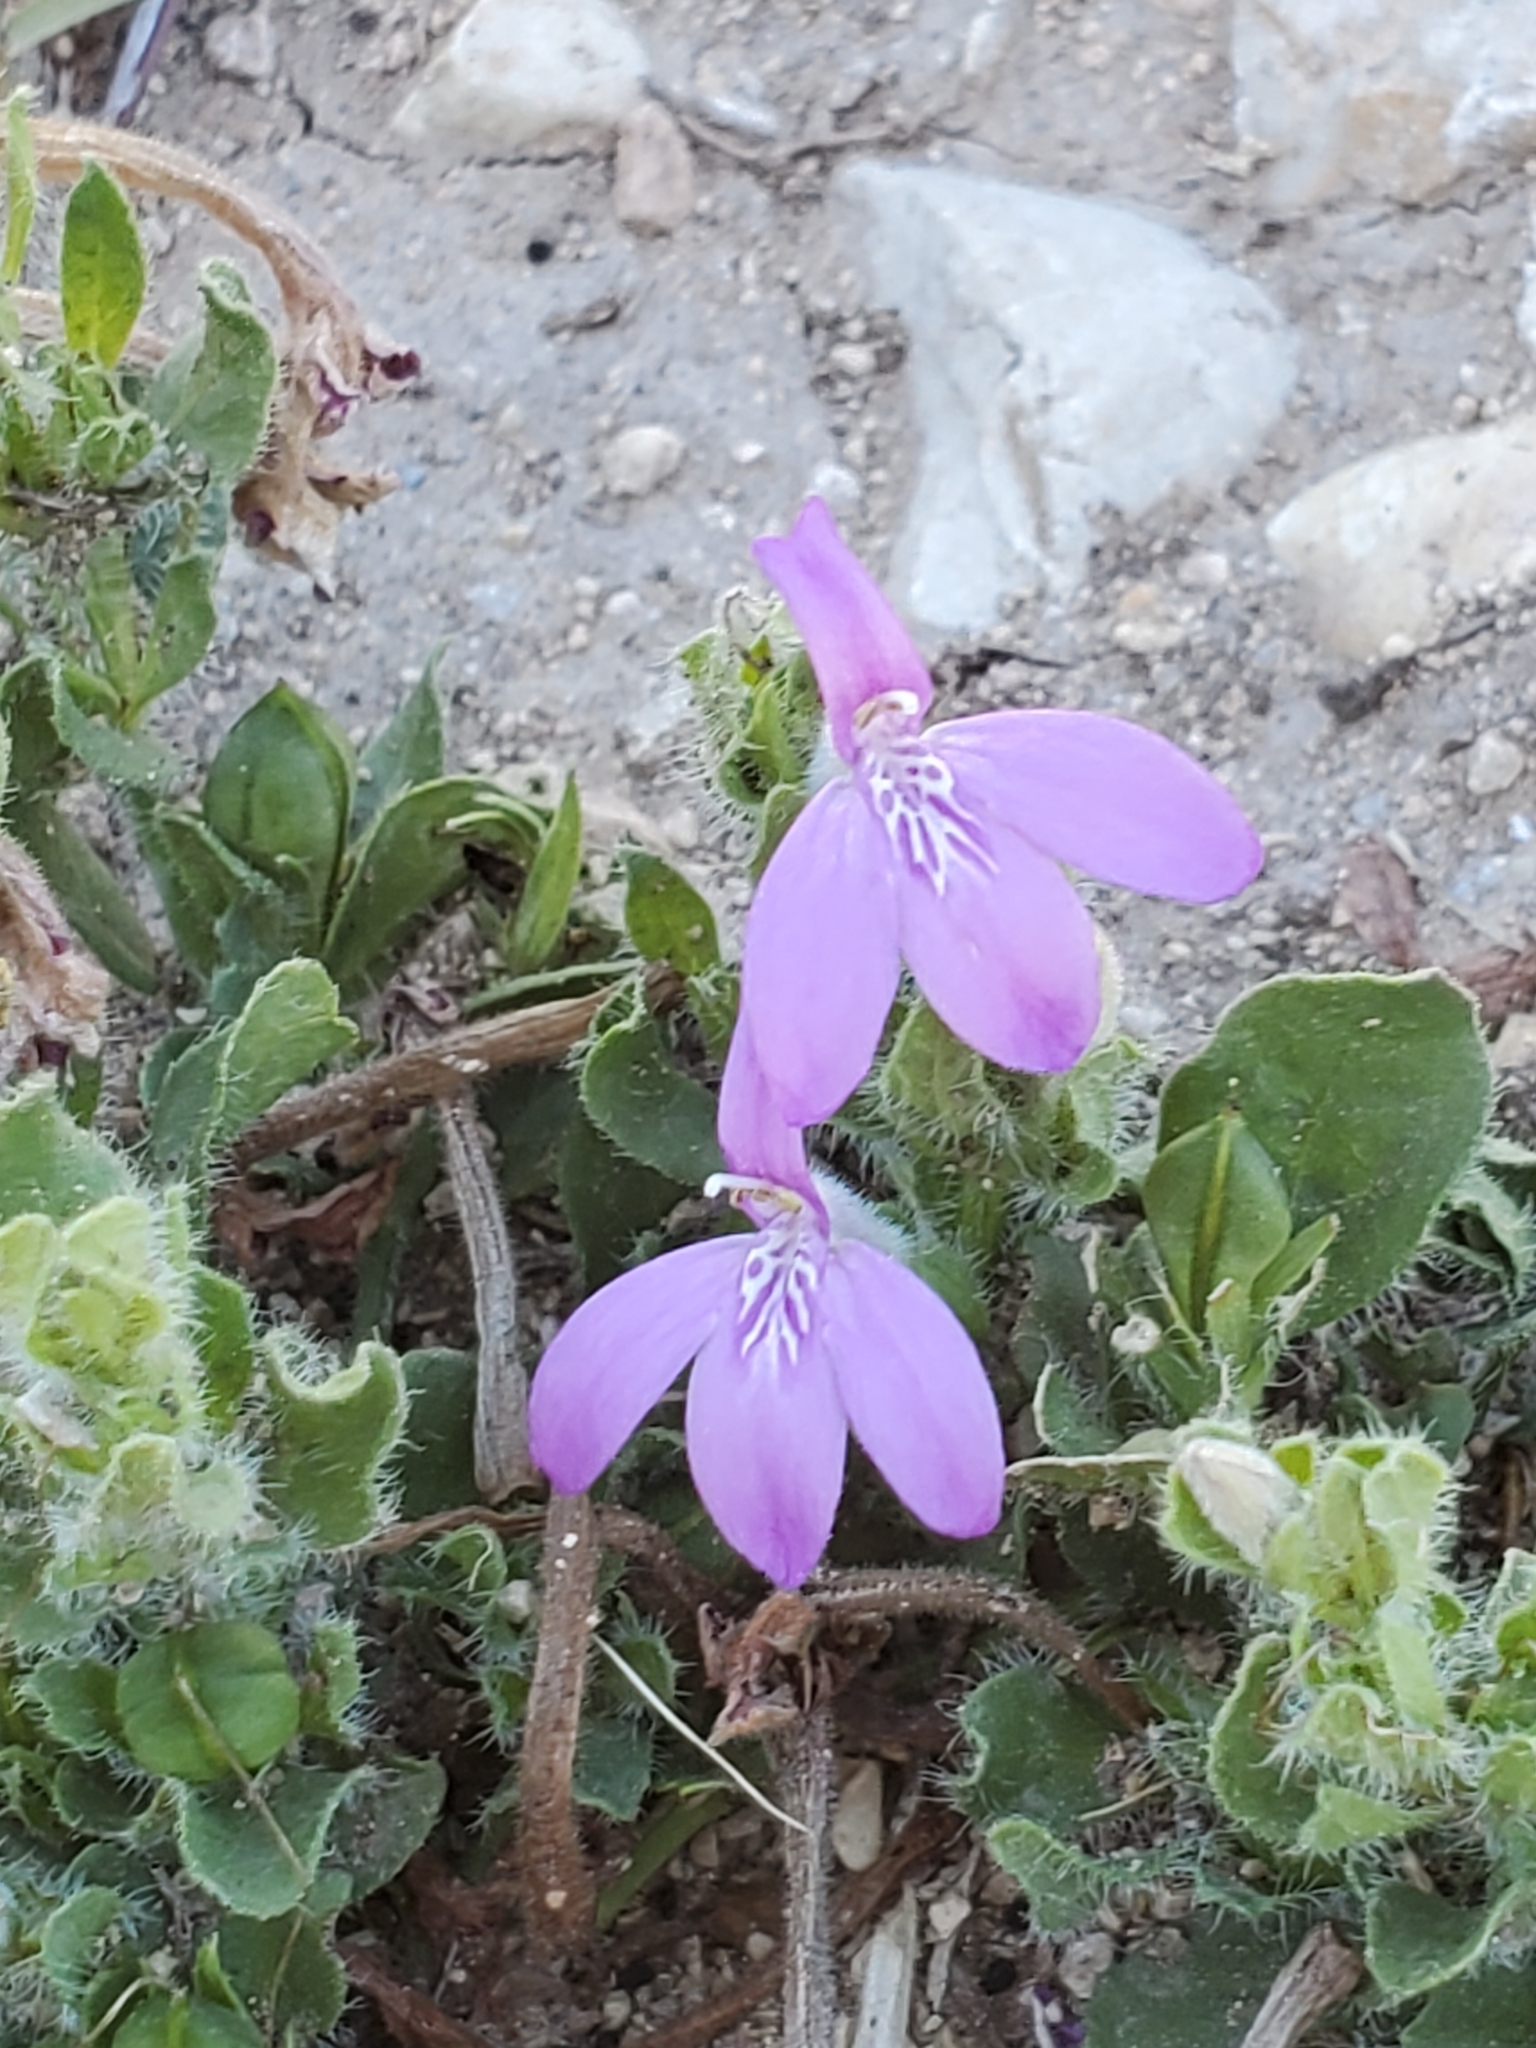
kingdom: Plantae
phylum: Tracheophyta
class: Magnoliopsida
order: Lamiales
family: Acanthaceae
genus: Justicia
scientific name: Justicia pilosella
